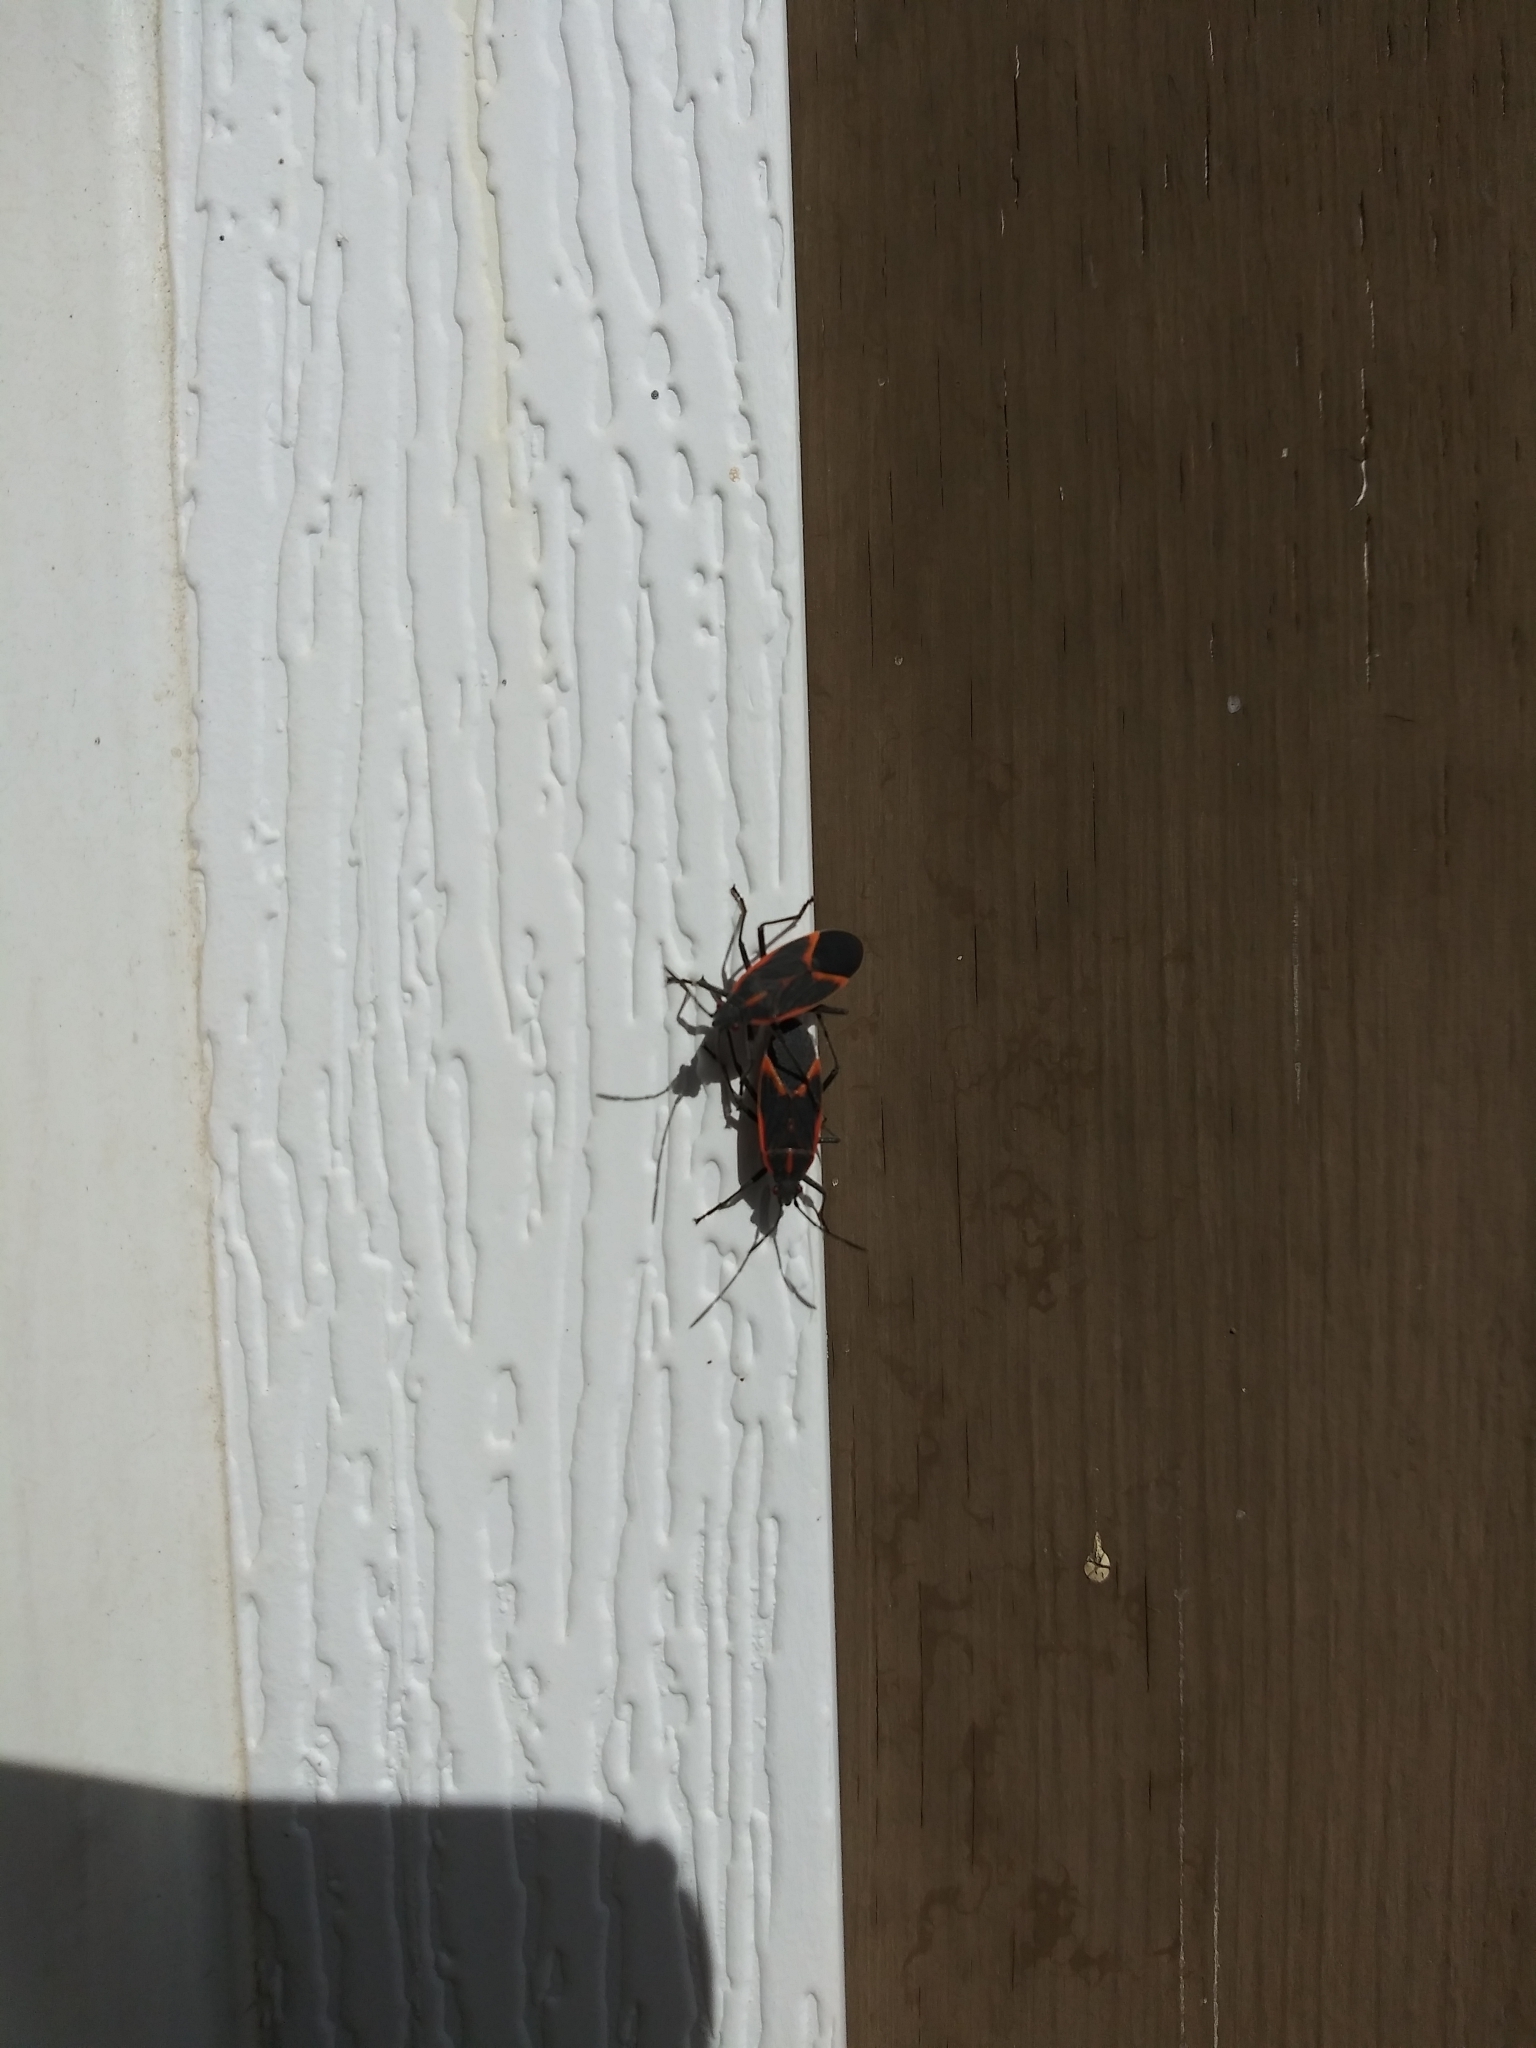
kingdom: Animalia
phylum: Arthropoda
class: Insecta
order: Hemiptera
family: Rhopalidae
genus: Boisea
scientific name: Boisea trivittata
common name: Boxelder bug
